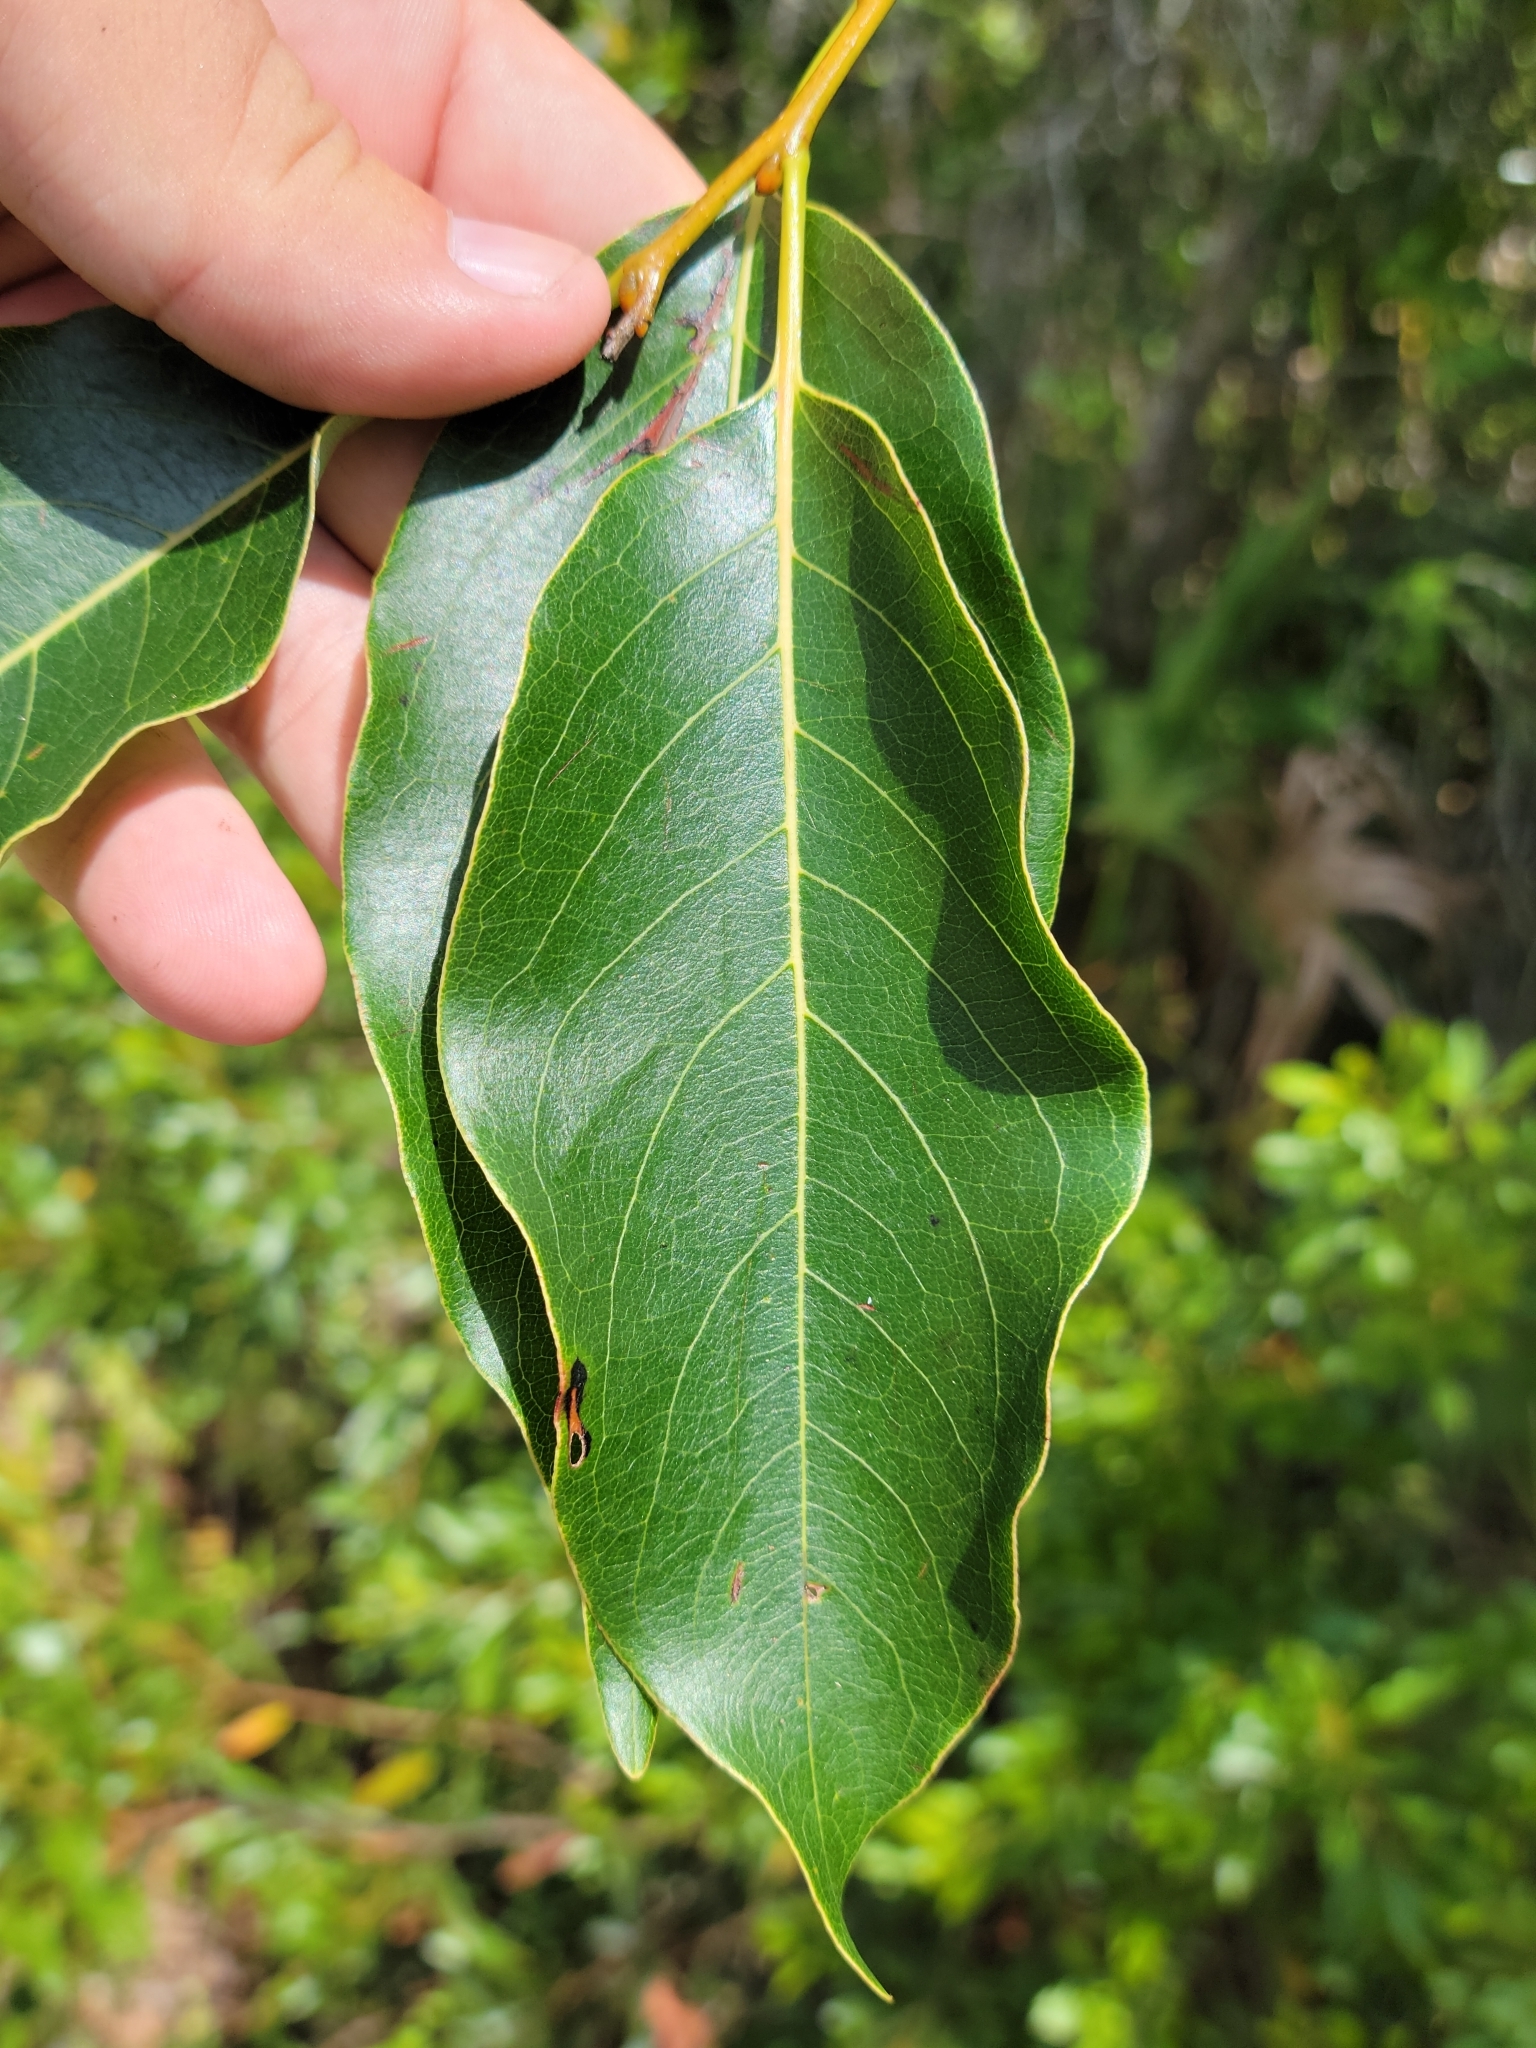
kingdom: Plantae
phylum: Tracheophyta
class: Magnoliopsida
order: Ericales
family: Ebenaceae
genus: Diospyros
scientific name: Diospyros virginiana
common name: Persimmon
